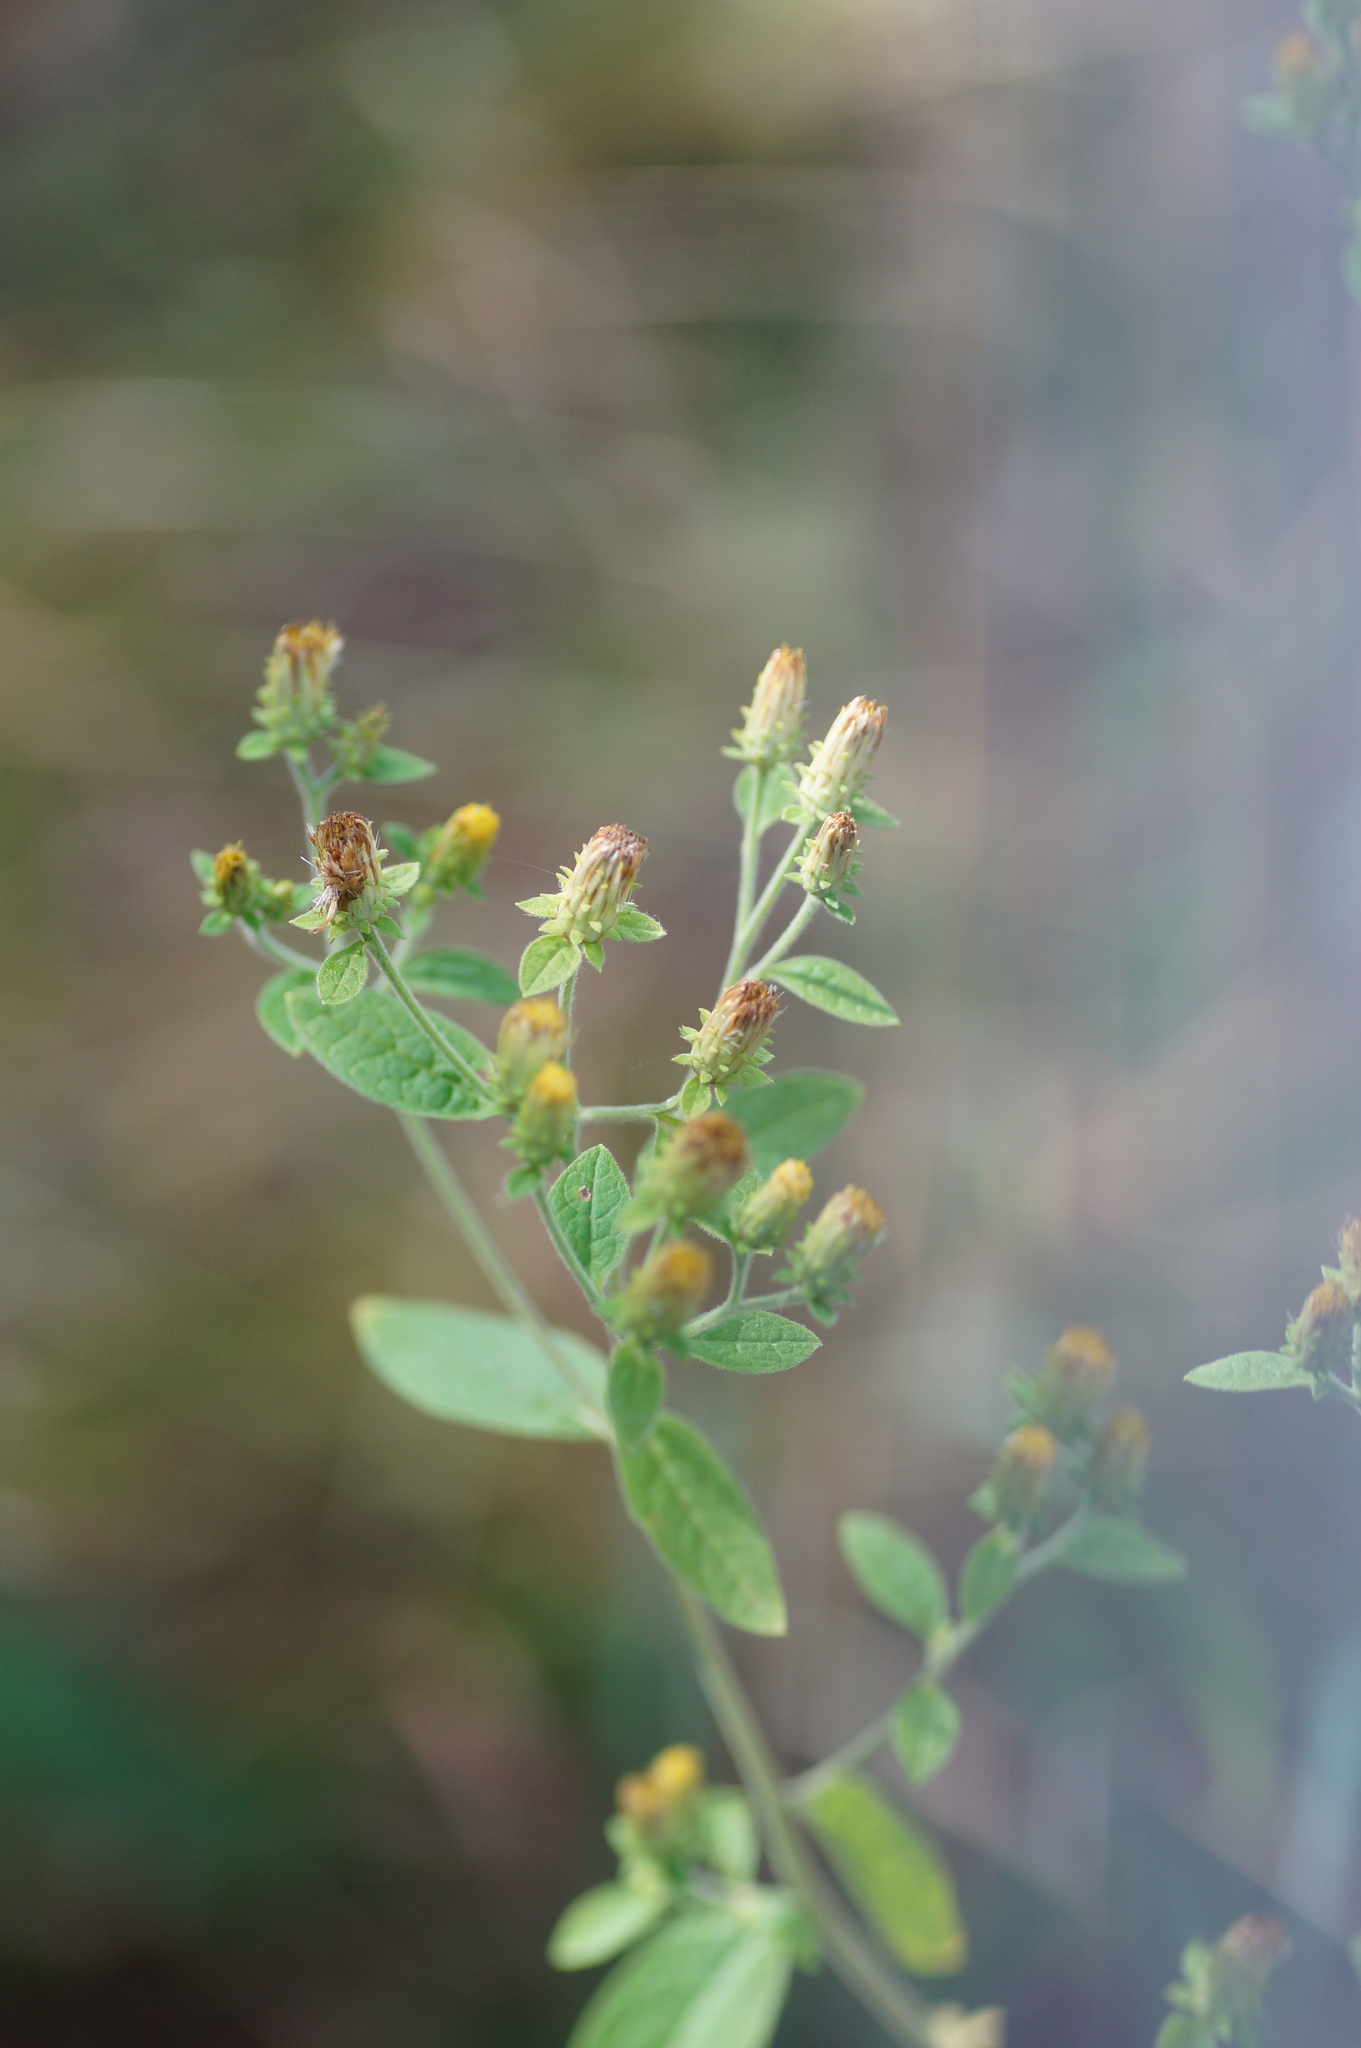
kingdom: Plantae
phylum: Tracheophyta
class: Magnoliopsida
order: Asterales
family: Asteraceae
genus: Pentanema
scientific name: Pentanema squarrosum
